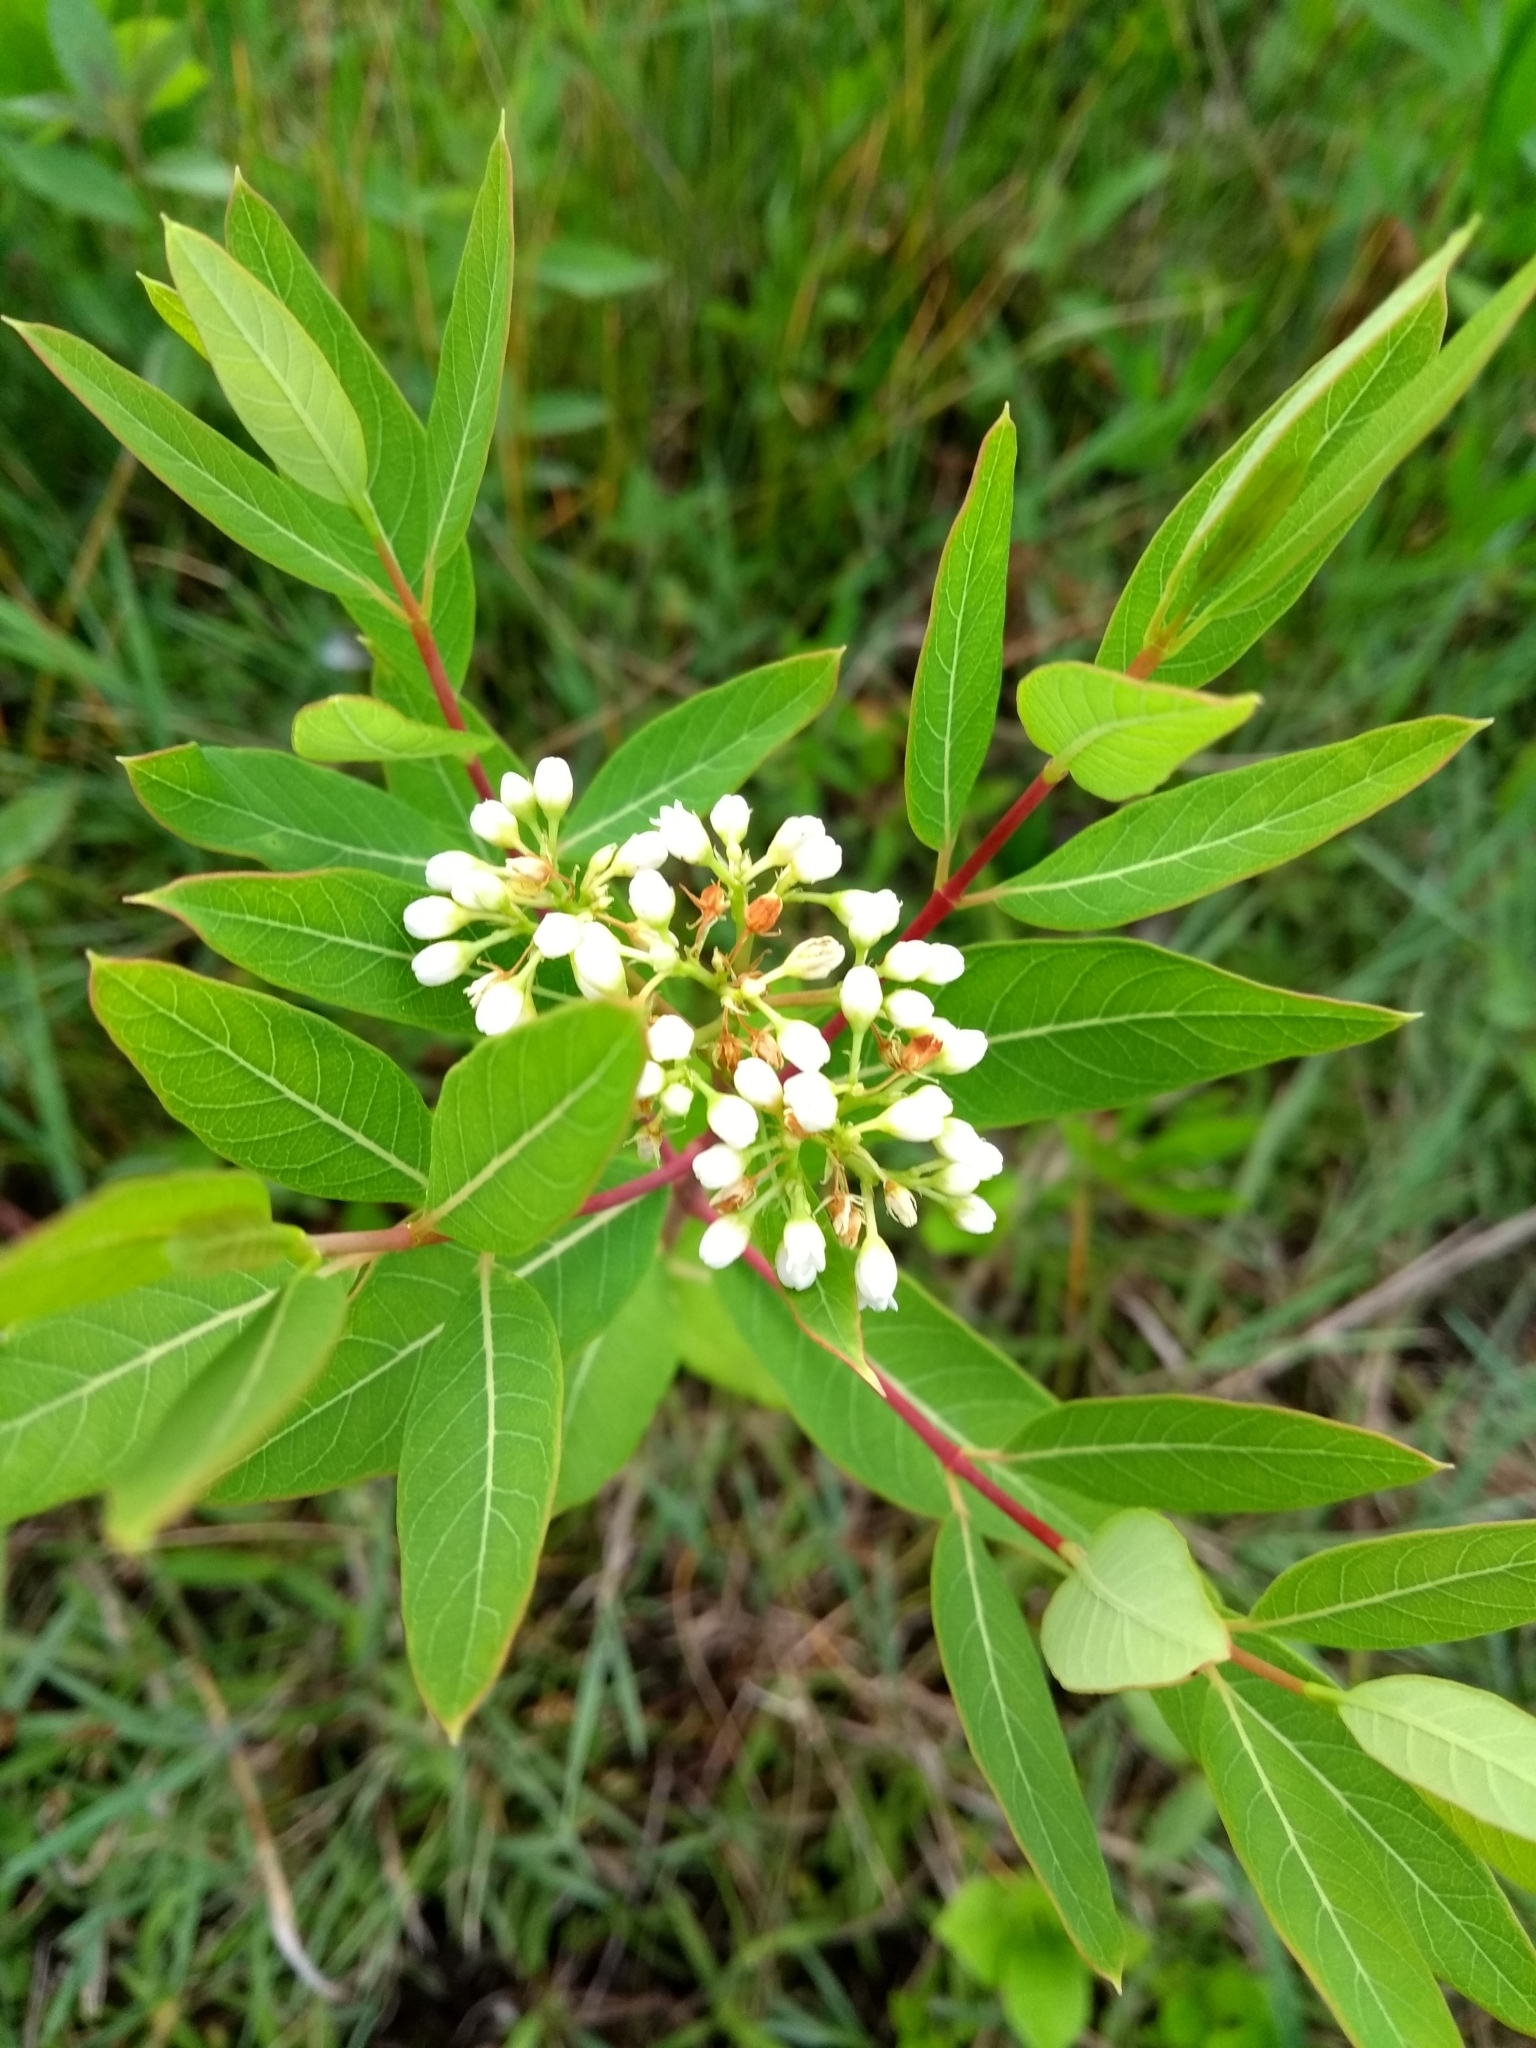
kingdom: Plantae
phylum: Tracheophyta
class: Magnoliopsida
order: Gentianales
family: Apocynaceae
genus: Apocynum
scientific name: Apocynum cannabinum
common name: Hemp dogbane
